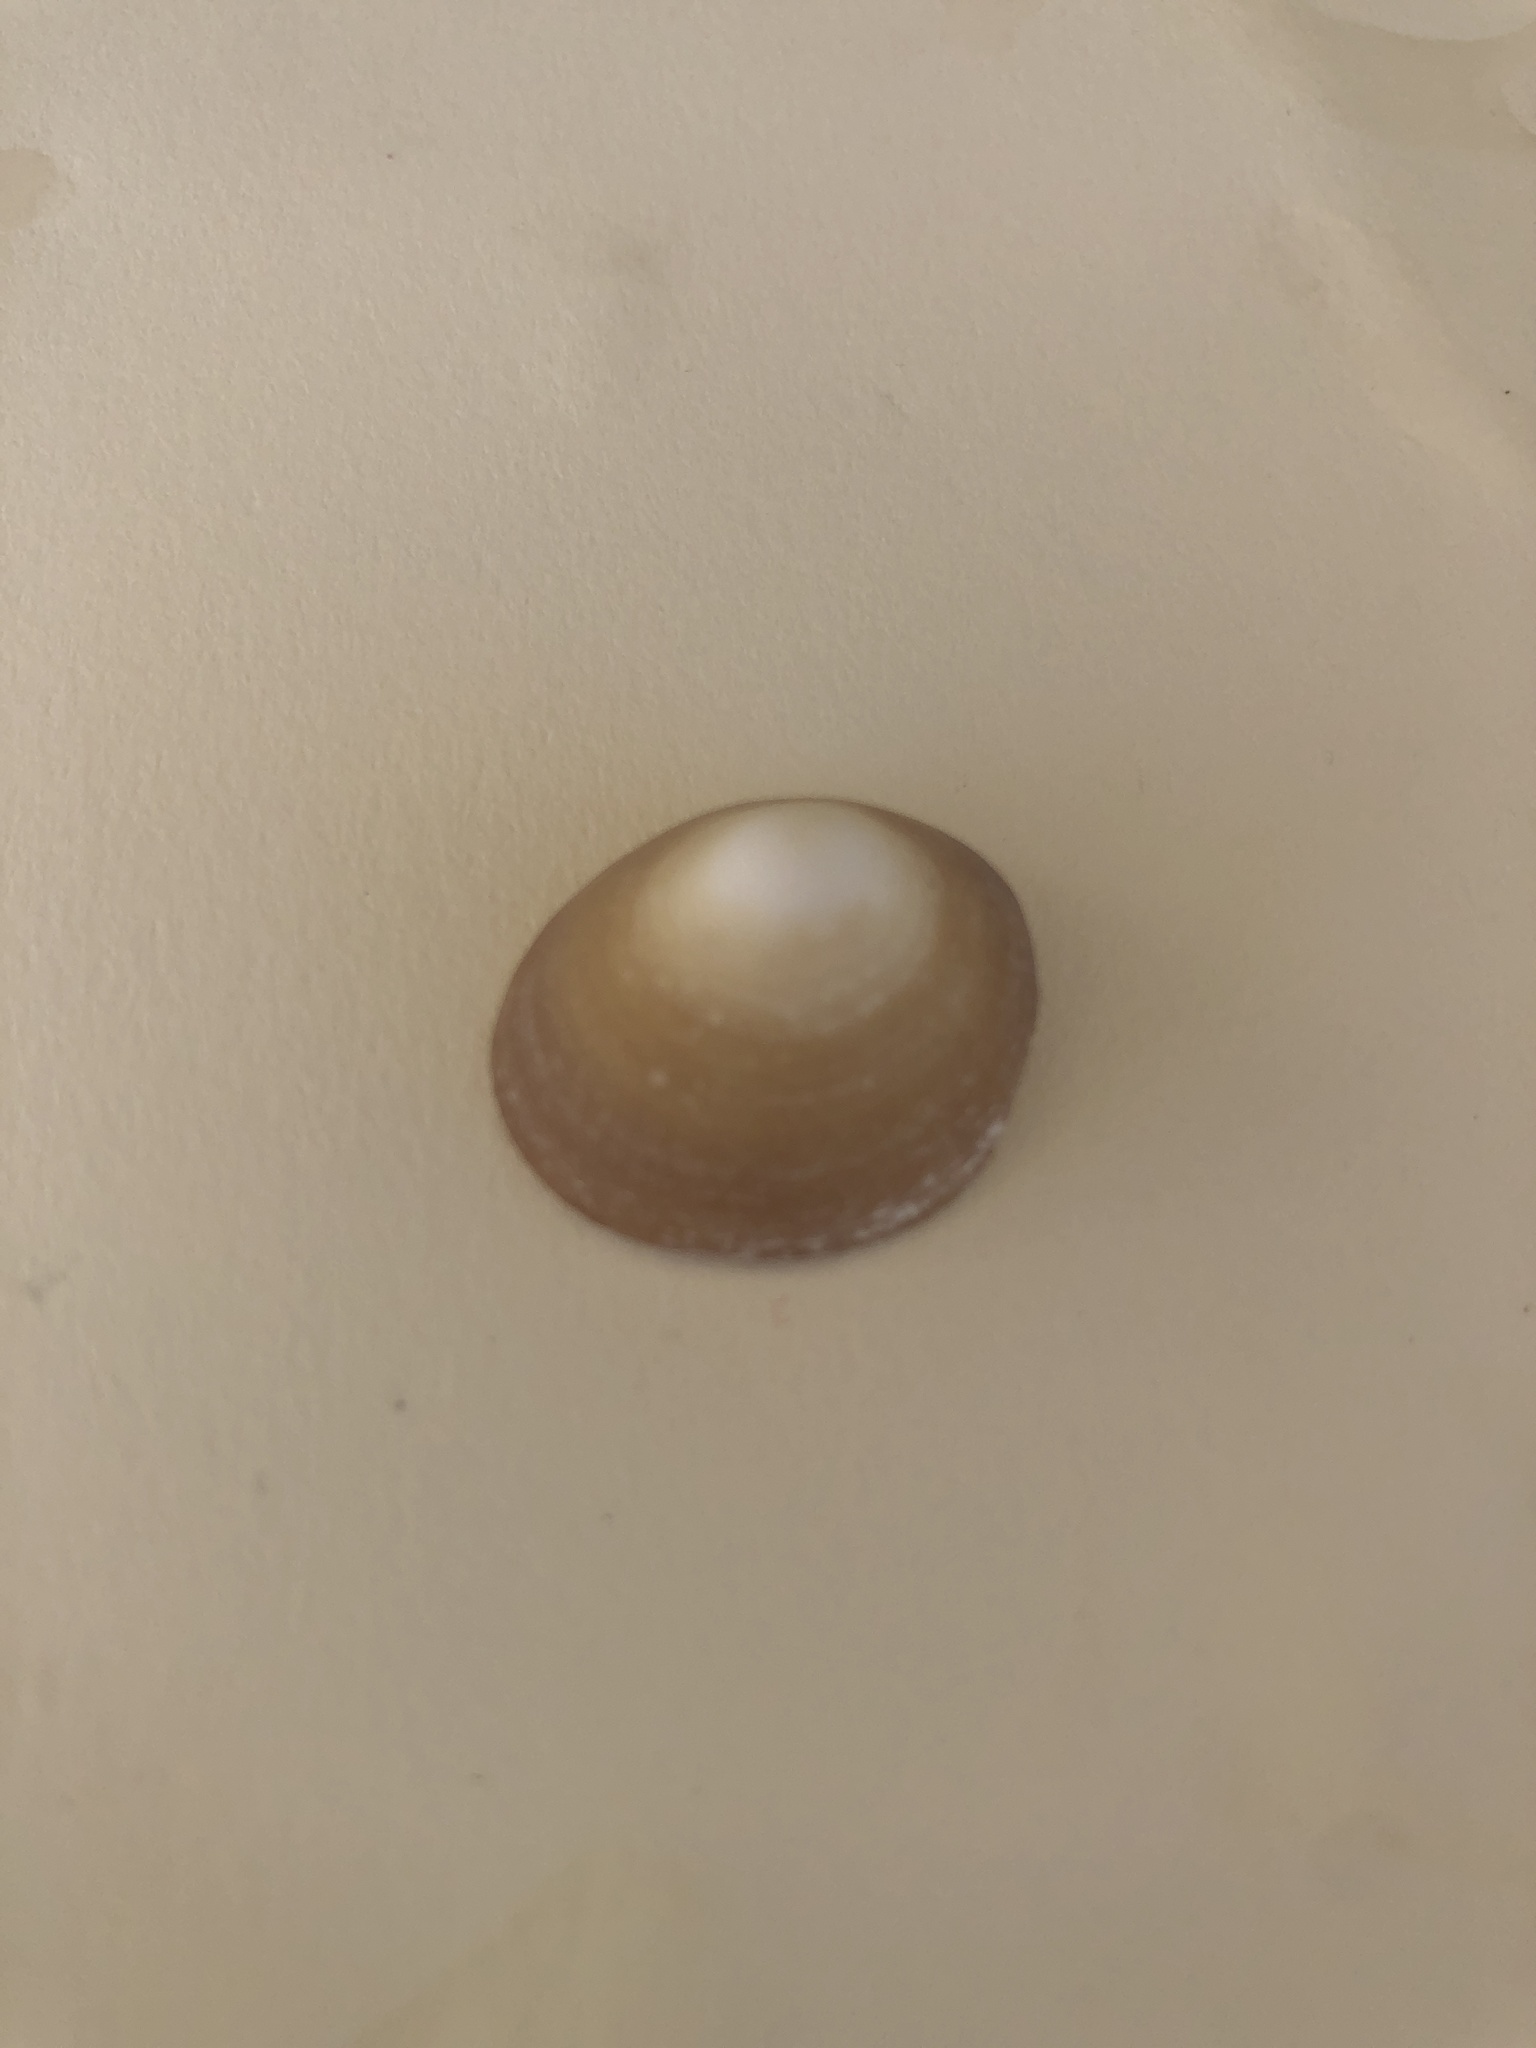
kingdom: Animalia
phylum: Mollusca
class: Gastropoda
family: Lottiidae
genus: Scurria
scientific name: Scurria scurra
